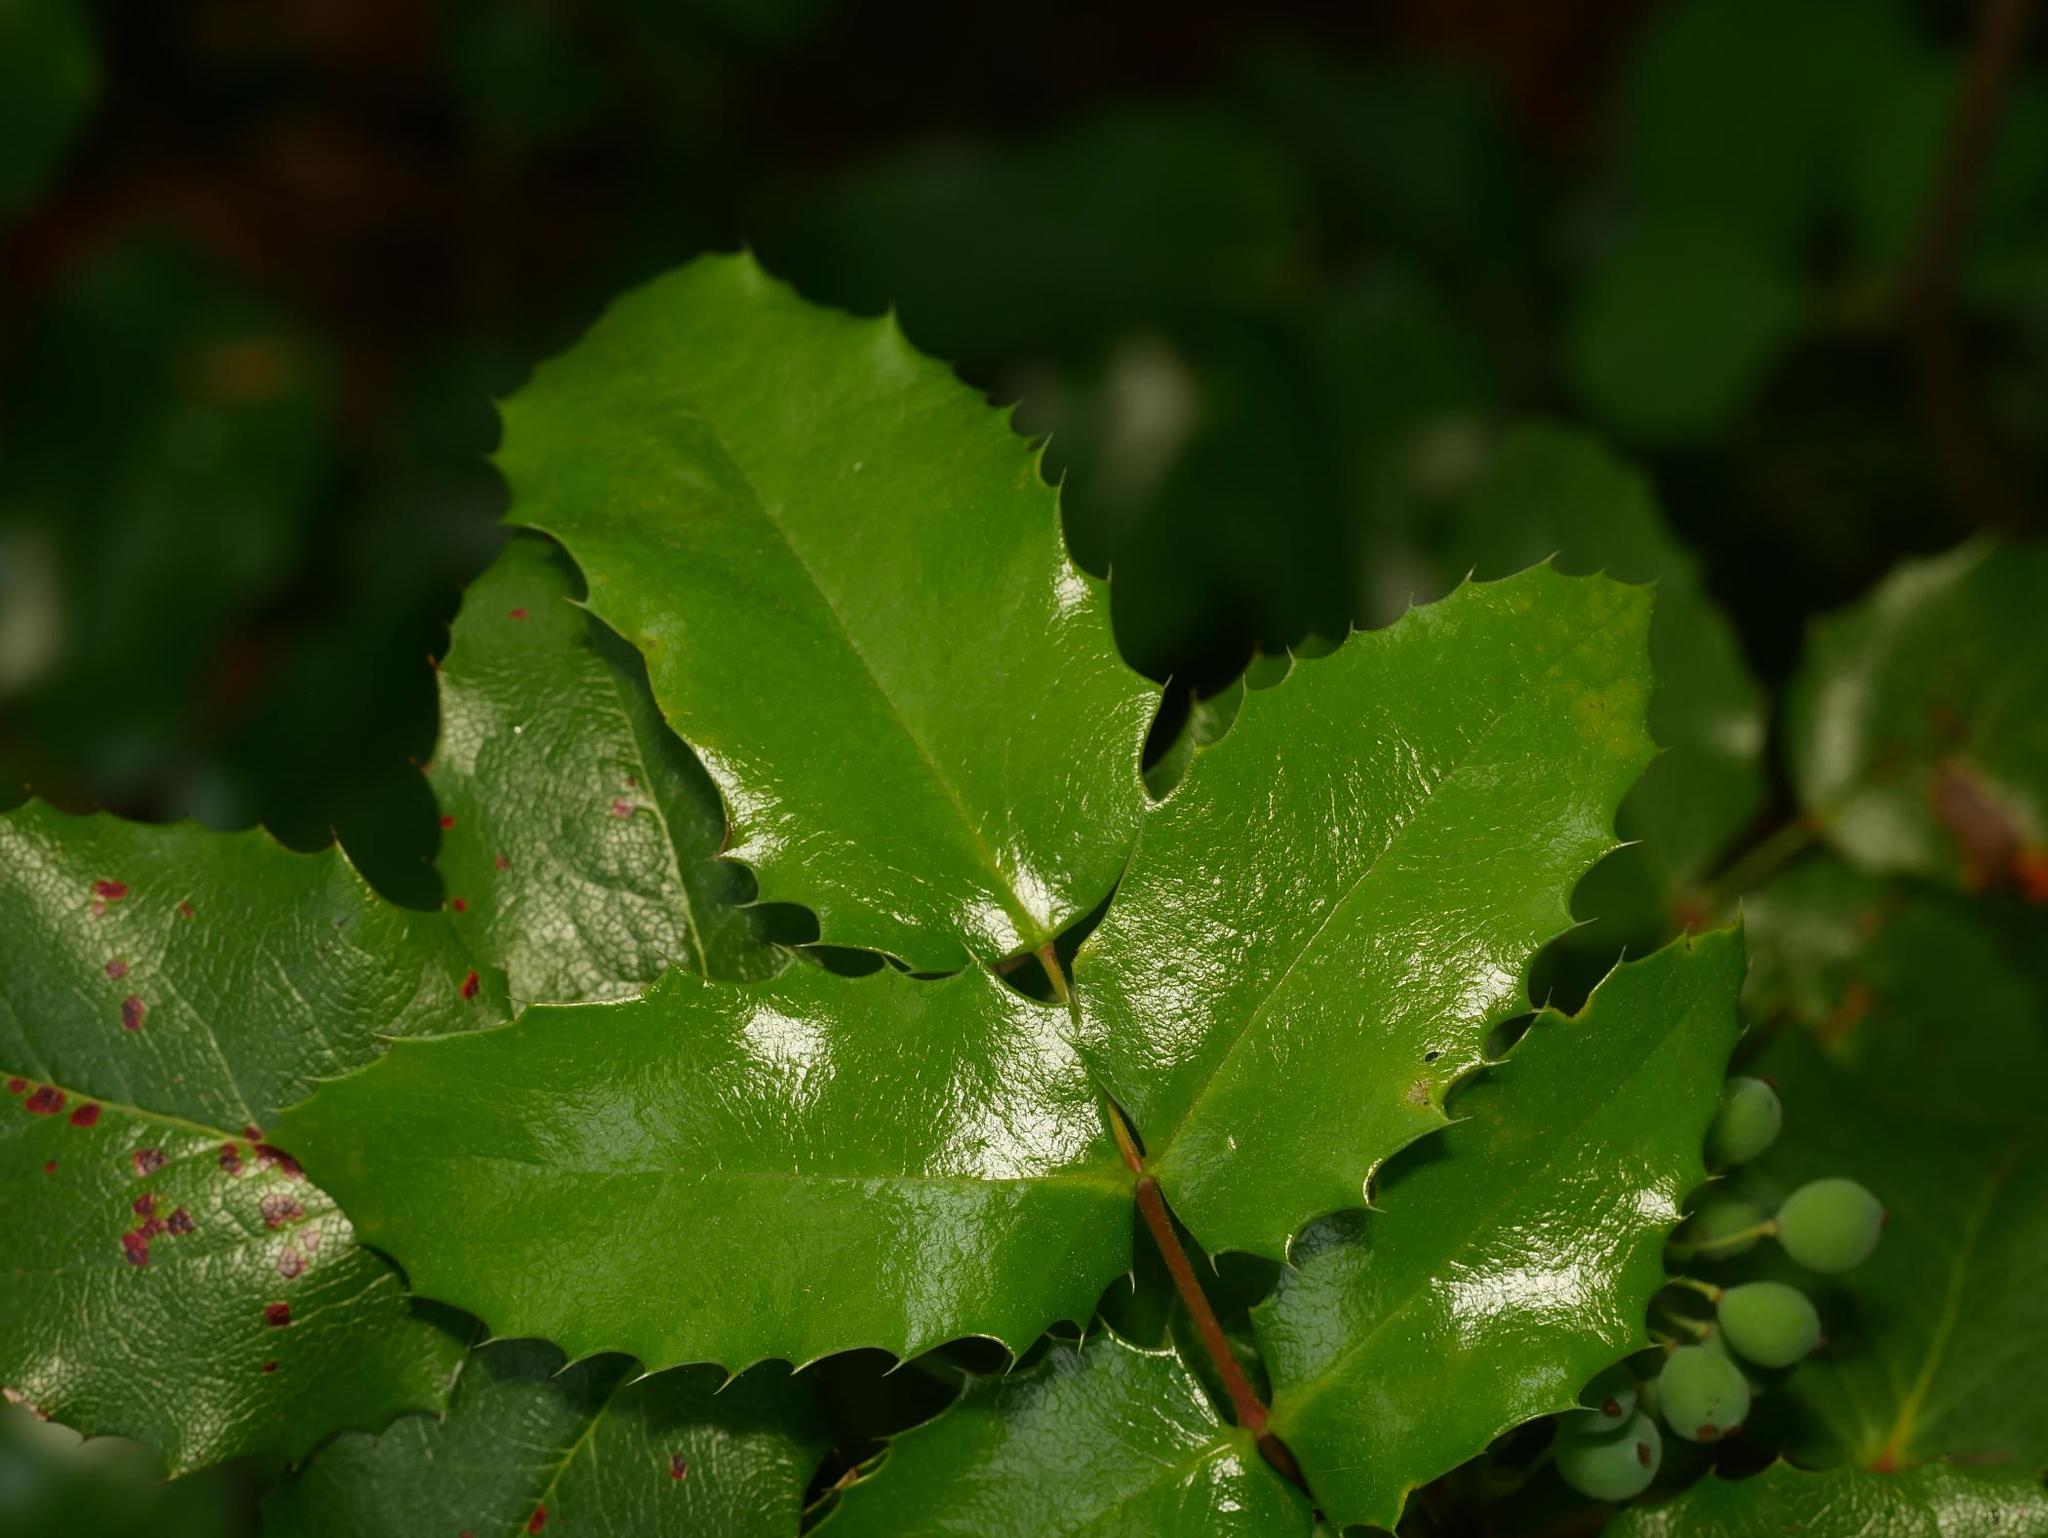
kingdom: Plantae
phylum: Tracheophyta
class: Magnoliopsida
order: Ranunculales
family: Berberidaceae
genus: Mahonia
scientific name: Mahonia aquifolium
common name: Oregon-grape
